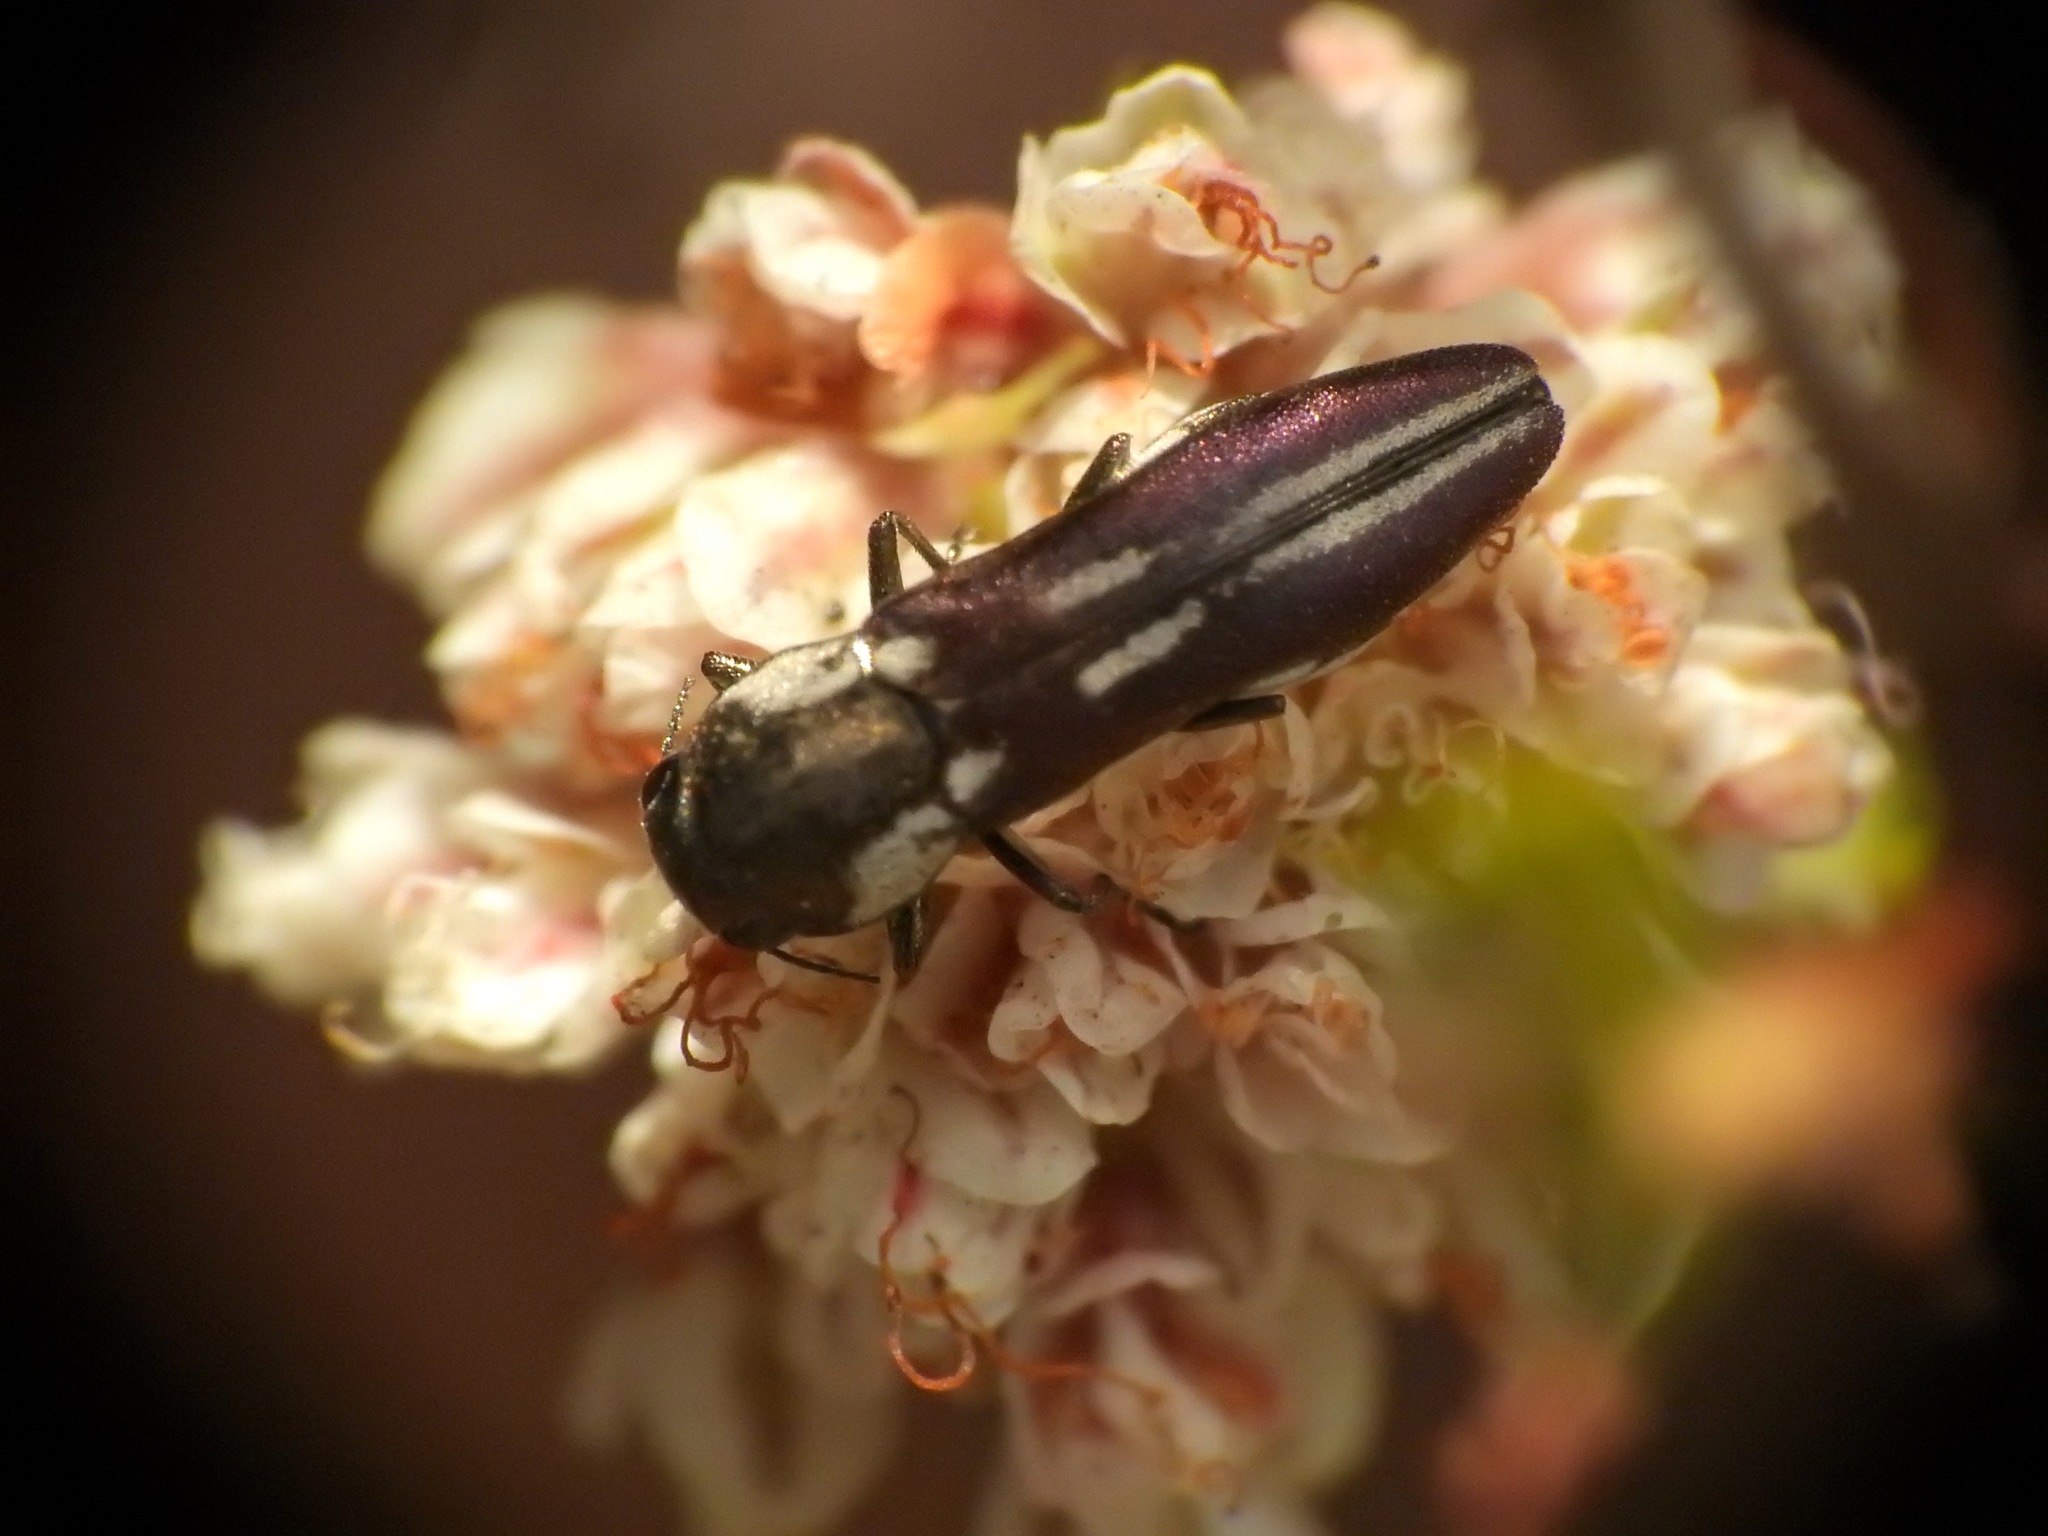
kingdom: Animalia
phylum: Arthropoda
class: Insecta
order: Coleoptera
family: Buprestidae
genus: Agrilus
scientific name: Agrilus blandus
